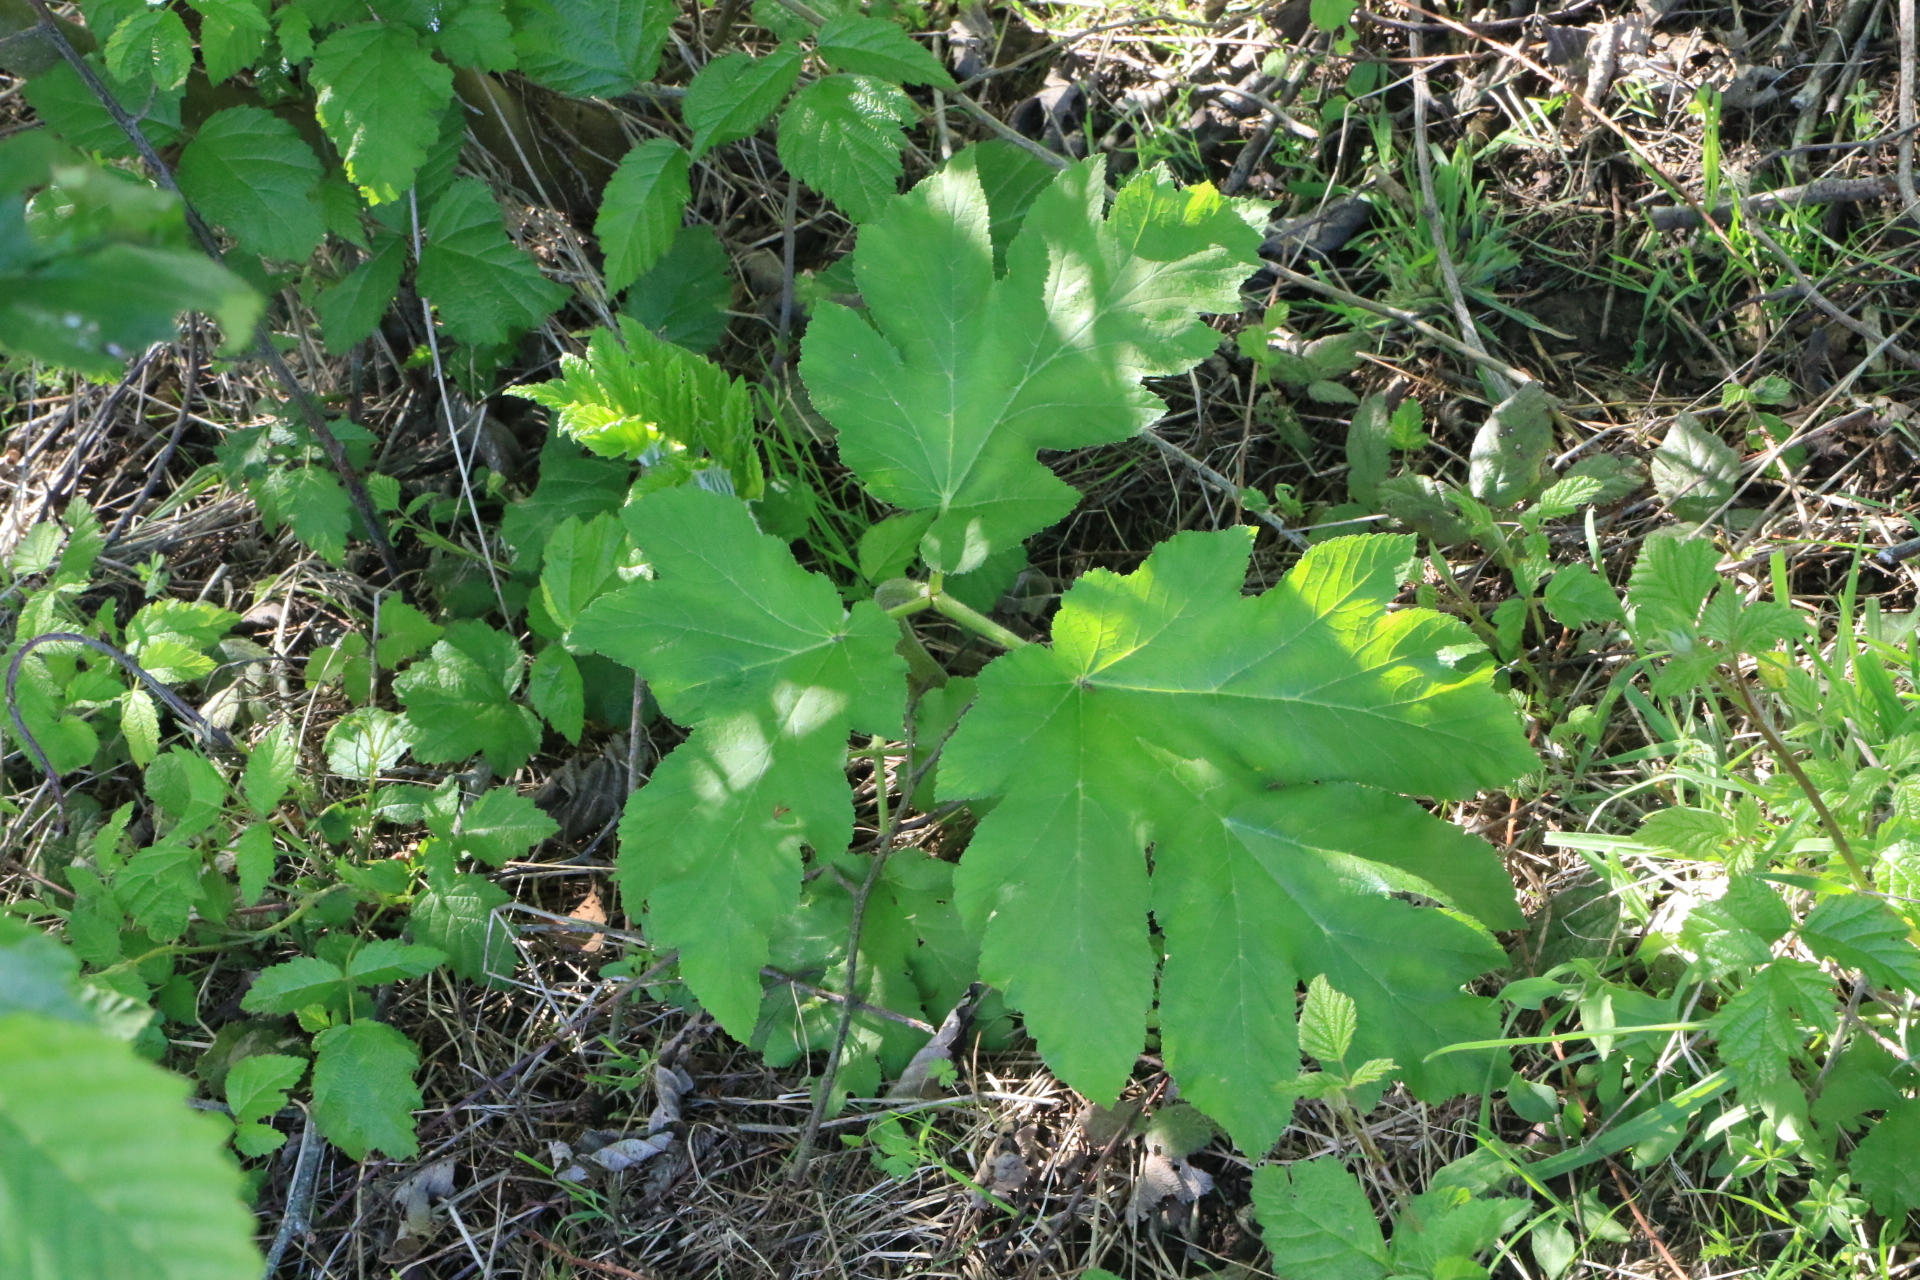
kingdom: Plantae
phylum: Tracheophyta
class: Magnoliopsida
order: Apiales
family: Apiaceae
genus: Heracleum
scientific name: Heracleum maximum
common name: American cow parsnip
